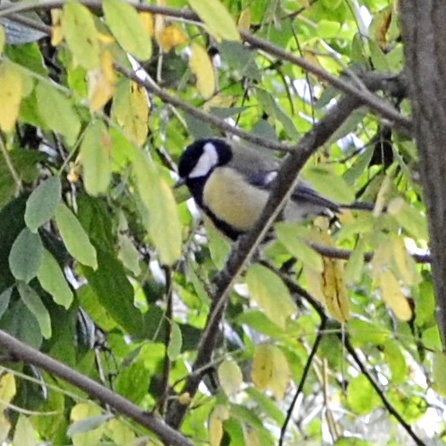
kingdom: Animalia
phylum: Chordata
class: Aves
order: Passeriformes
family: Paridae
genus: Parus
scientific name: Parus major
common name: Great tit
